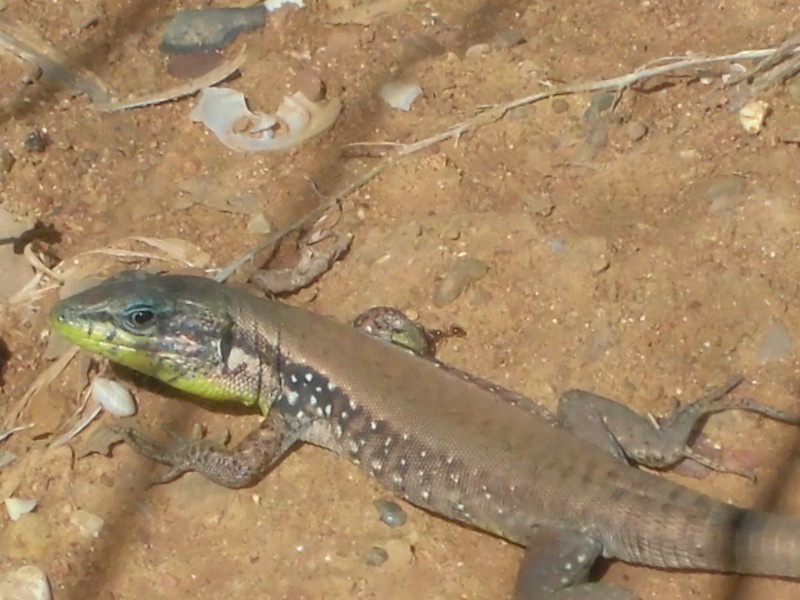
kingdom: Animalia
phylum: Chordata
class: Squamata
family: Lacertidae
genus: Phoenicolacerta
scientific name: Phoenicolacerta laevis
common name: Lebanon lizard
